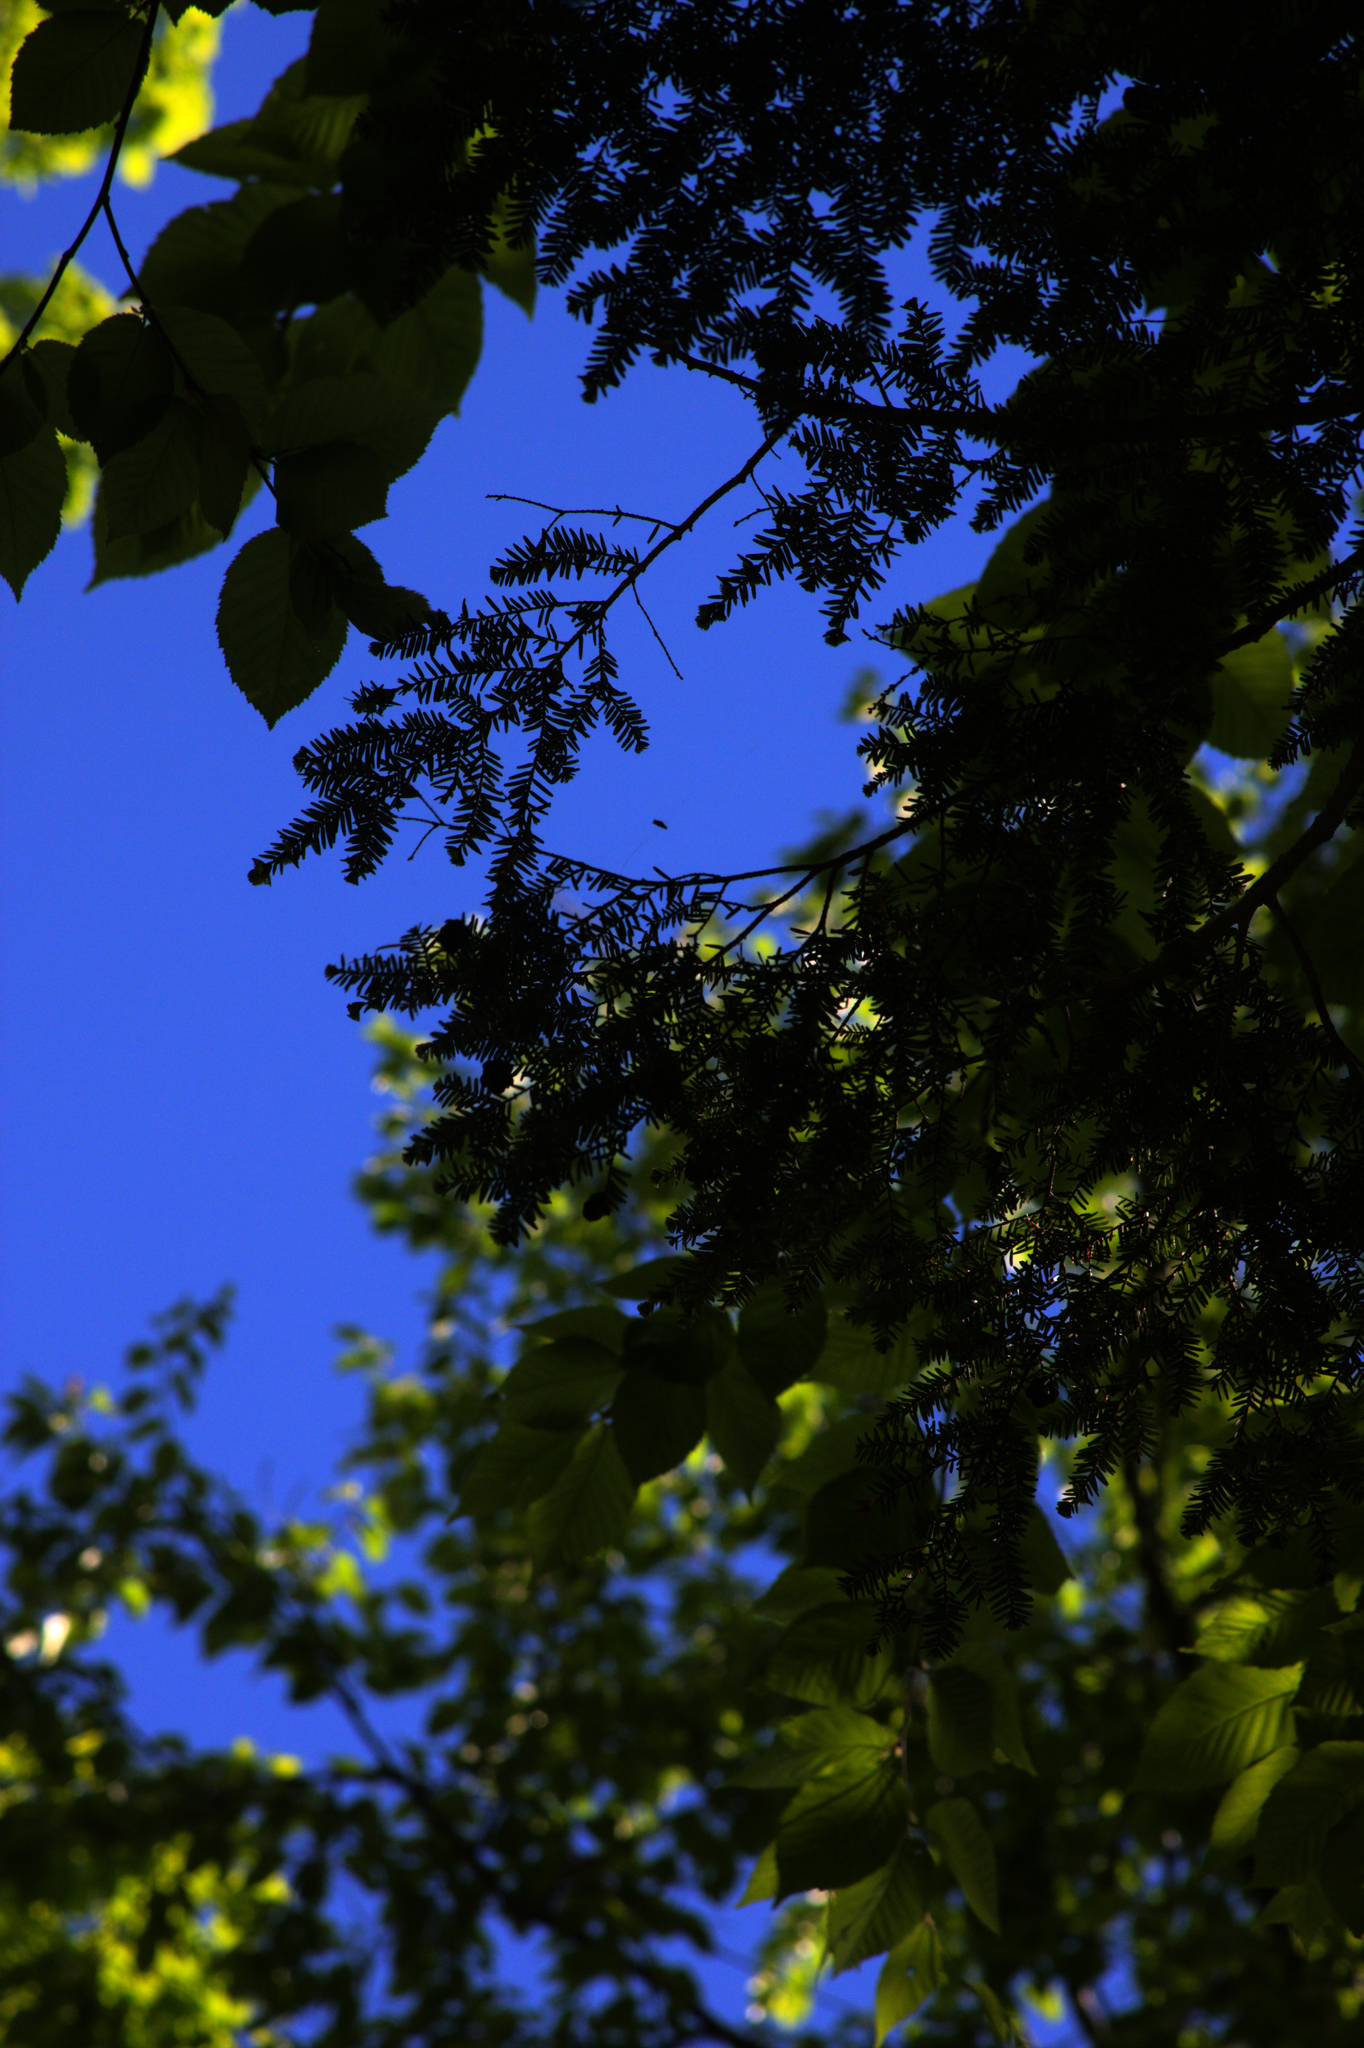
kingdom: Plantae
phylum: Tracheophyta
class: Pinopsida
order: Pinales
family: Pinaceae
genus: Tsuga
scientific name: Tsuga canadensis
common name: Eastern hemlock
